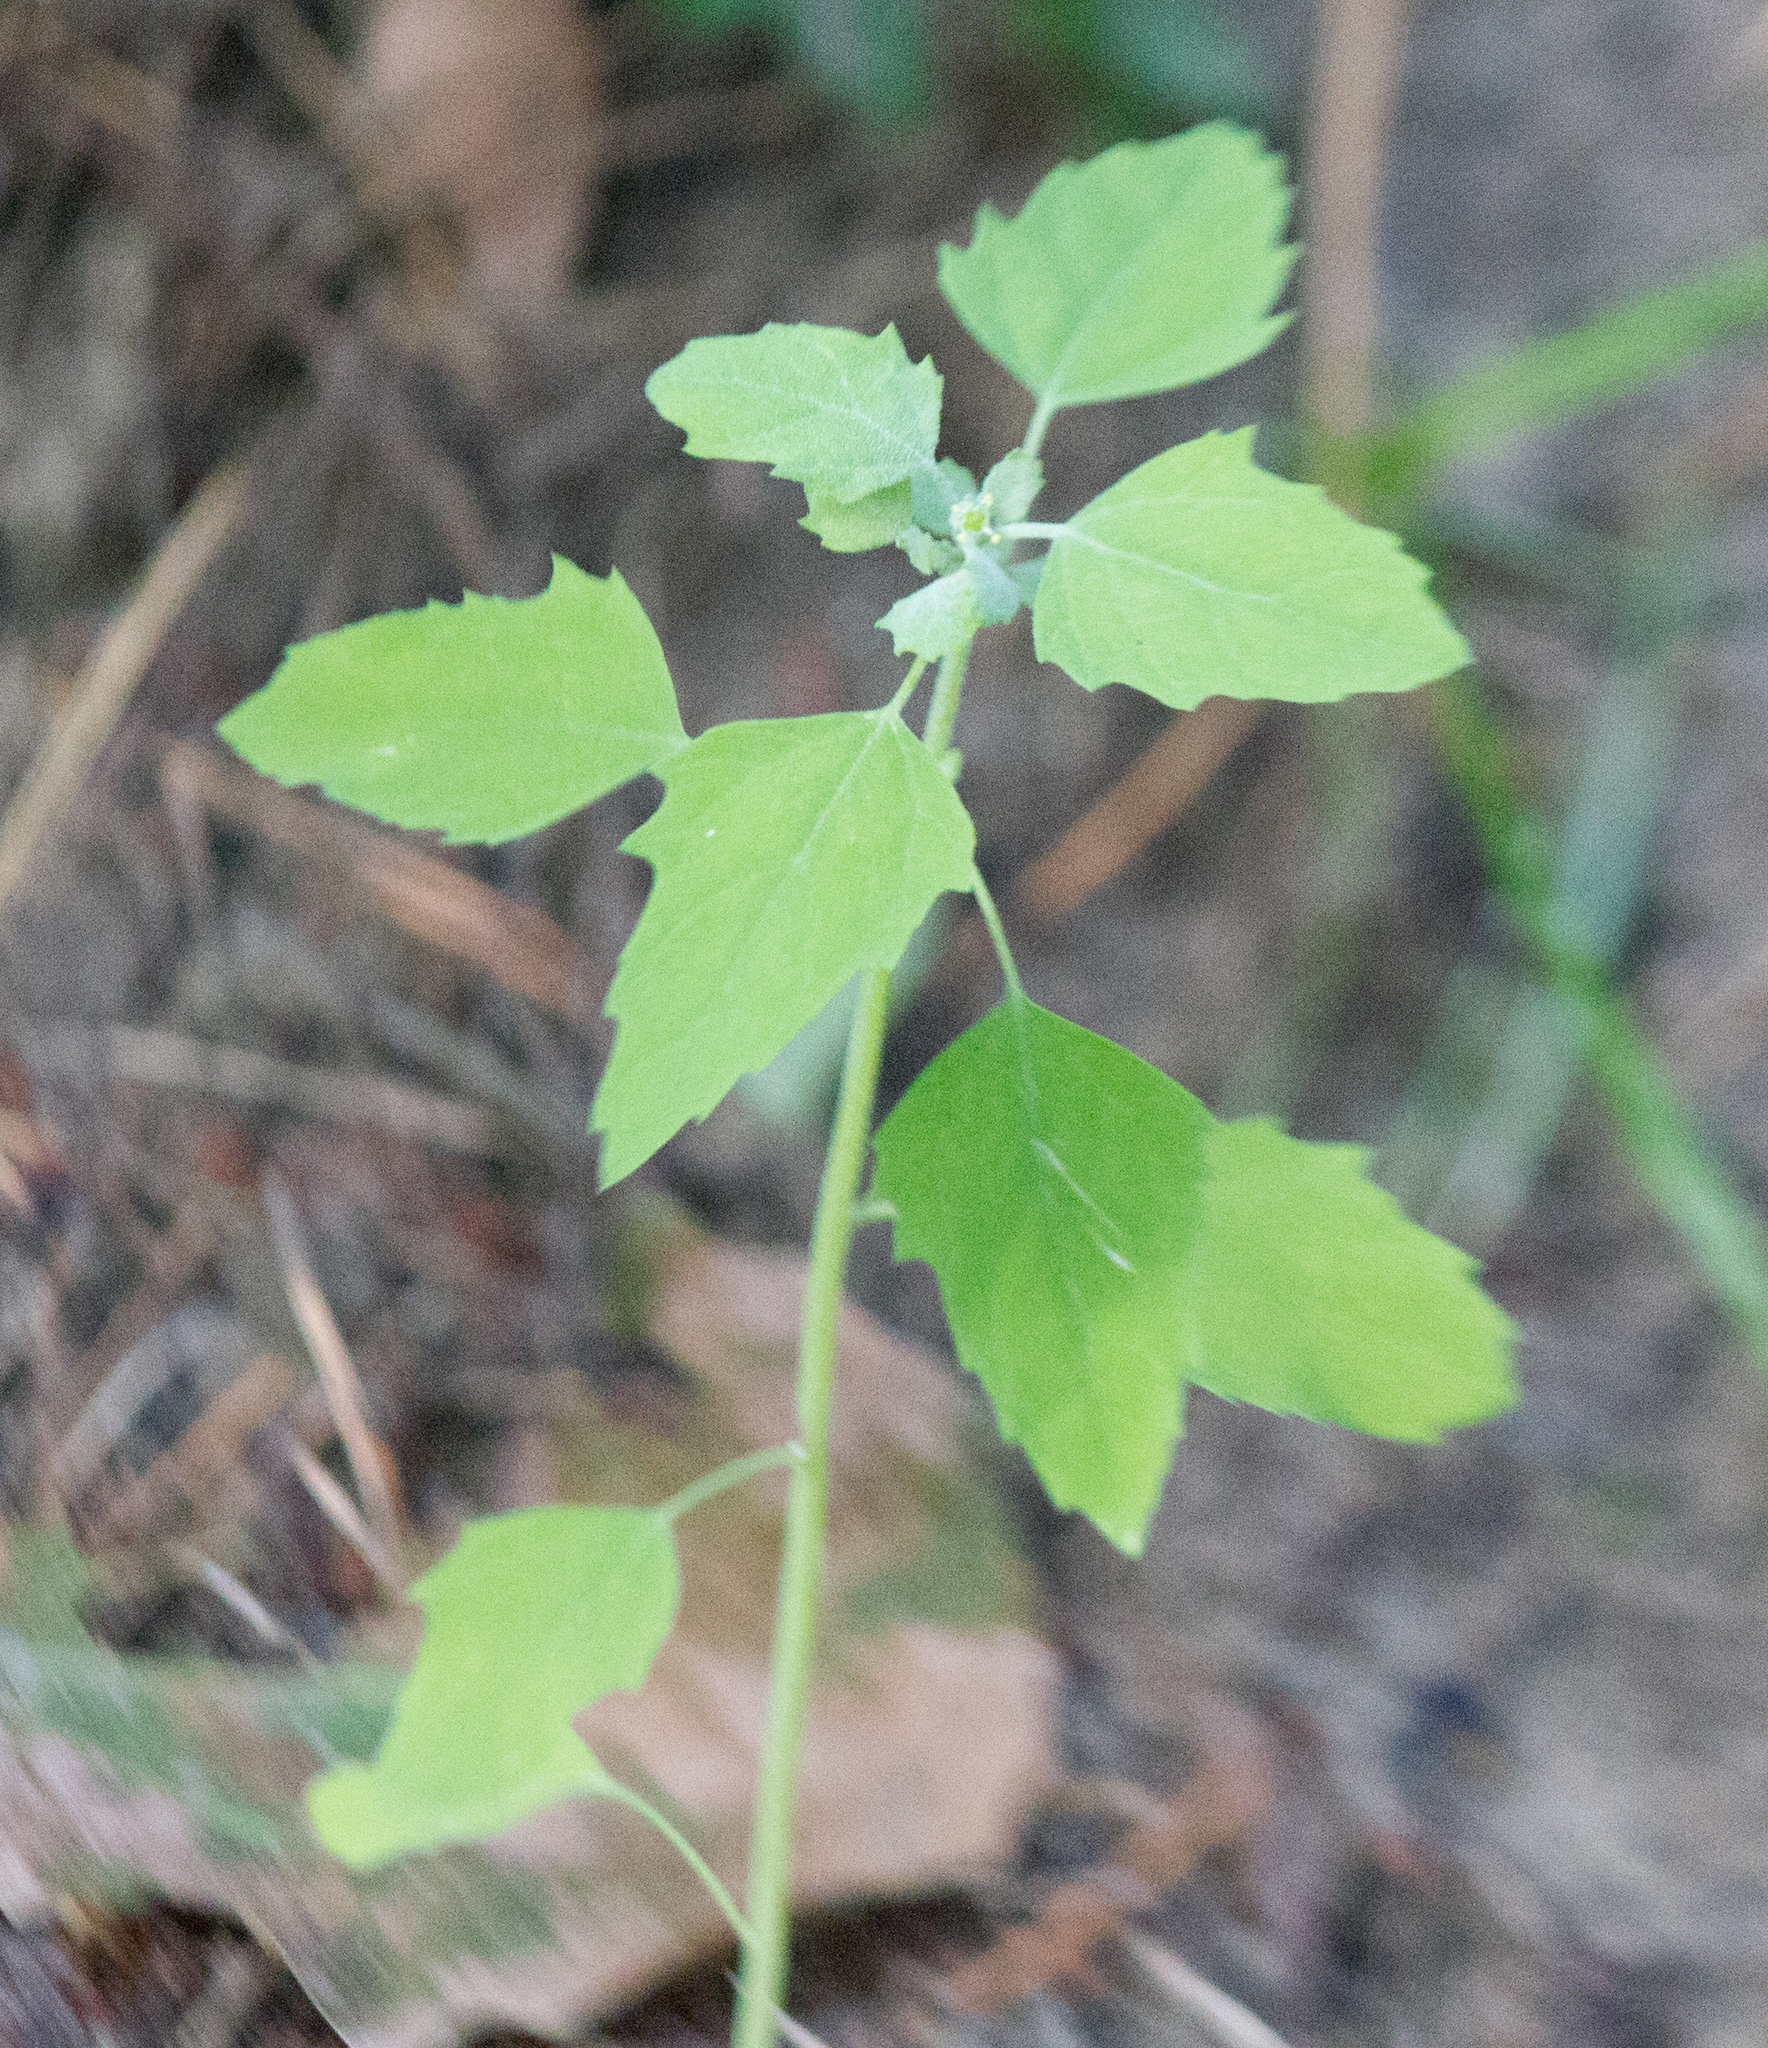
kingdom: Plantae
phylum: Tracheophyta
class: Magnoliopsida
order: Caryophyllales
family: Amaranthaceae
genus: Chenopodium
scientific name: Chenopodium album
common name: Fat-hen
